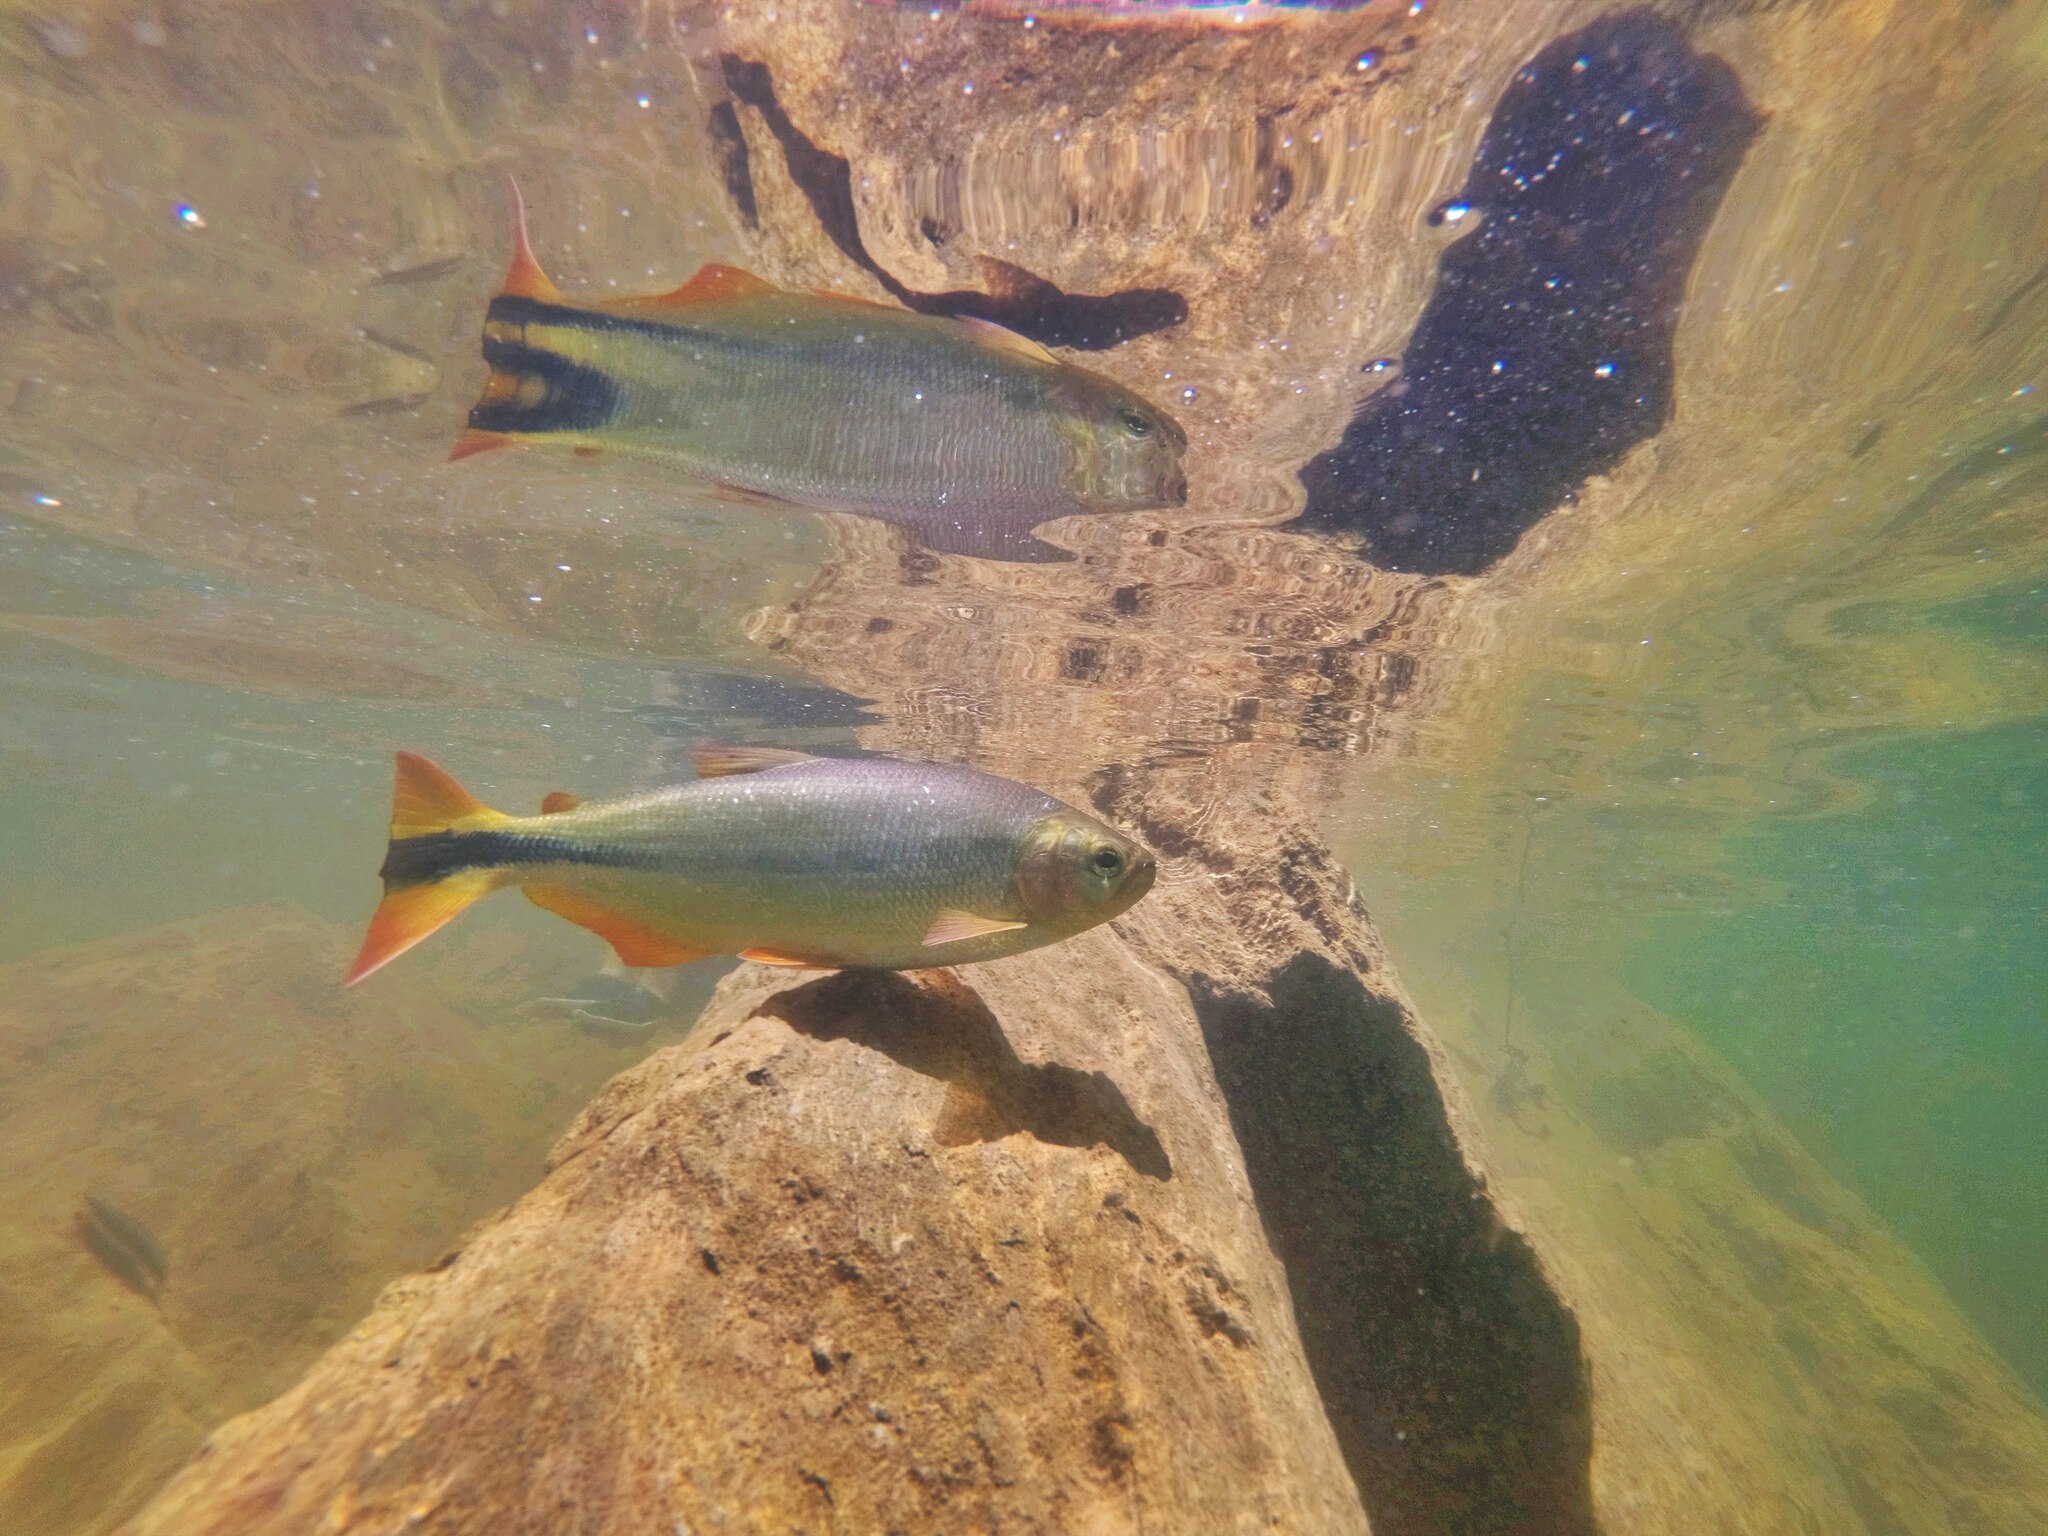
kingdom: Animalia
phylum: Chordata
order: Characiformes
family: Bryconidae
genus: Brycon
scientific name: Brycon hilarii
